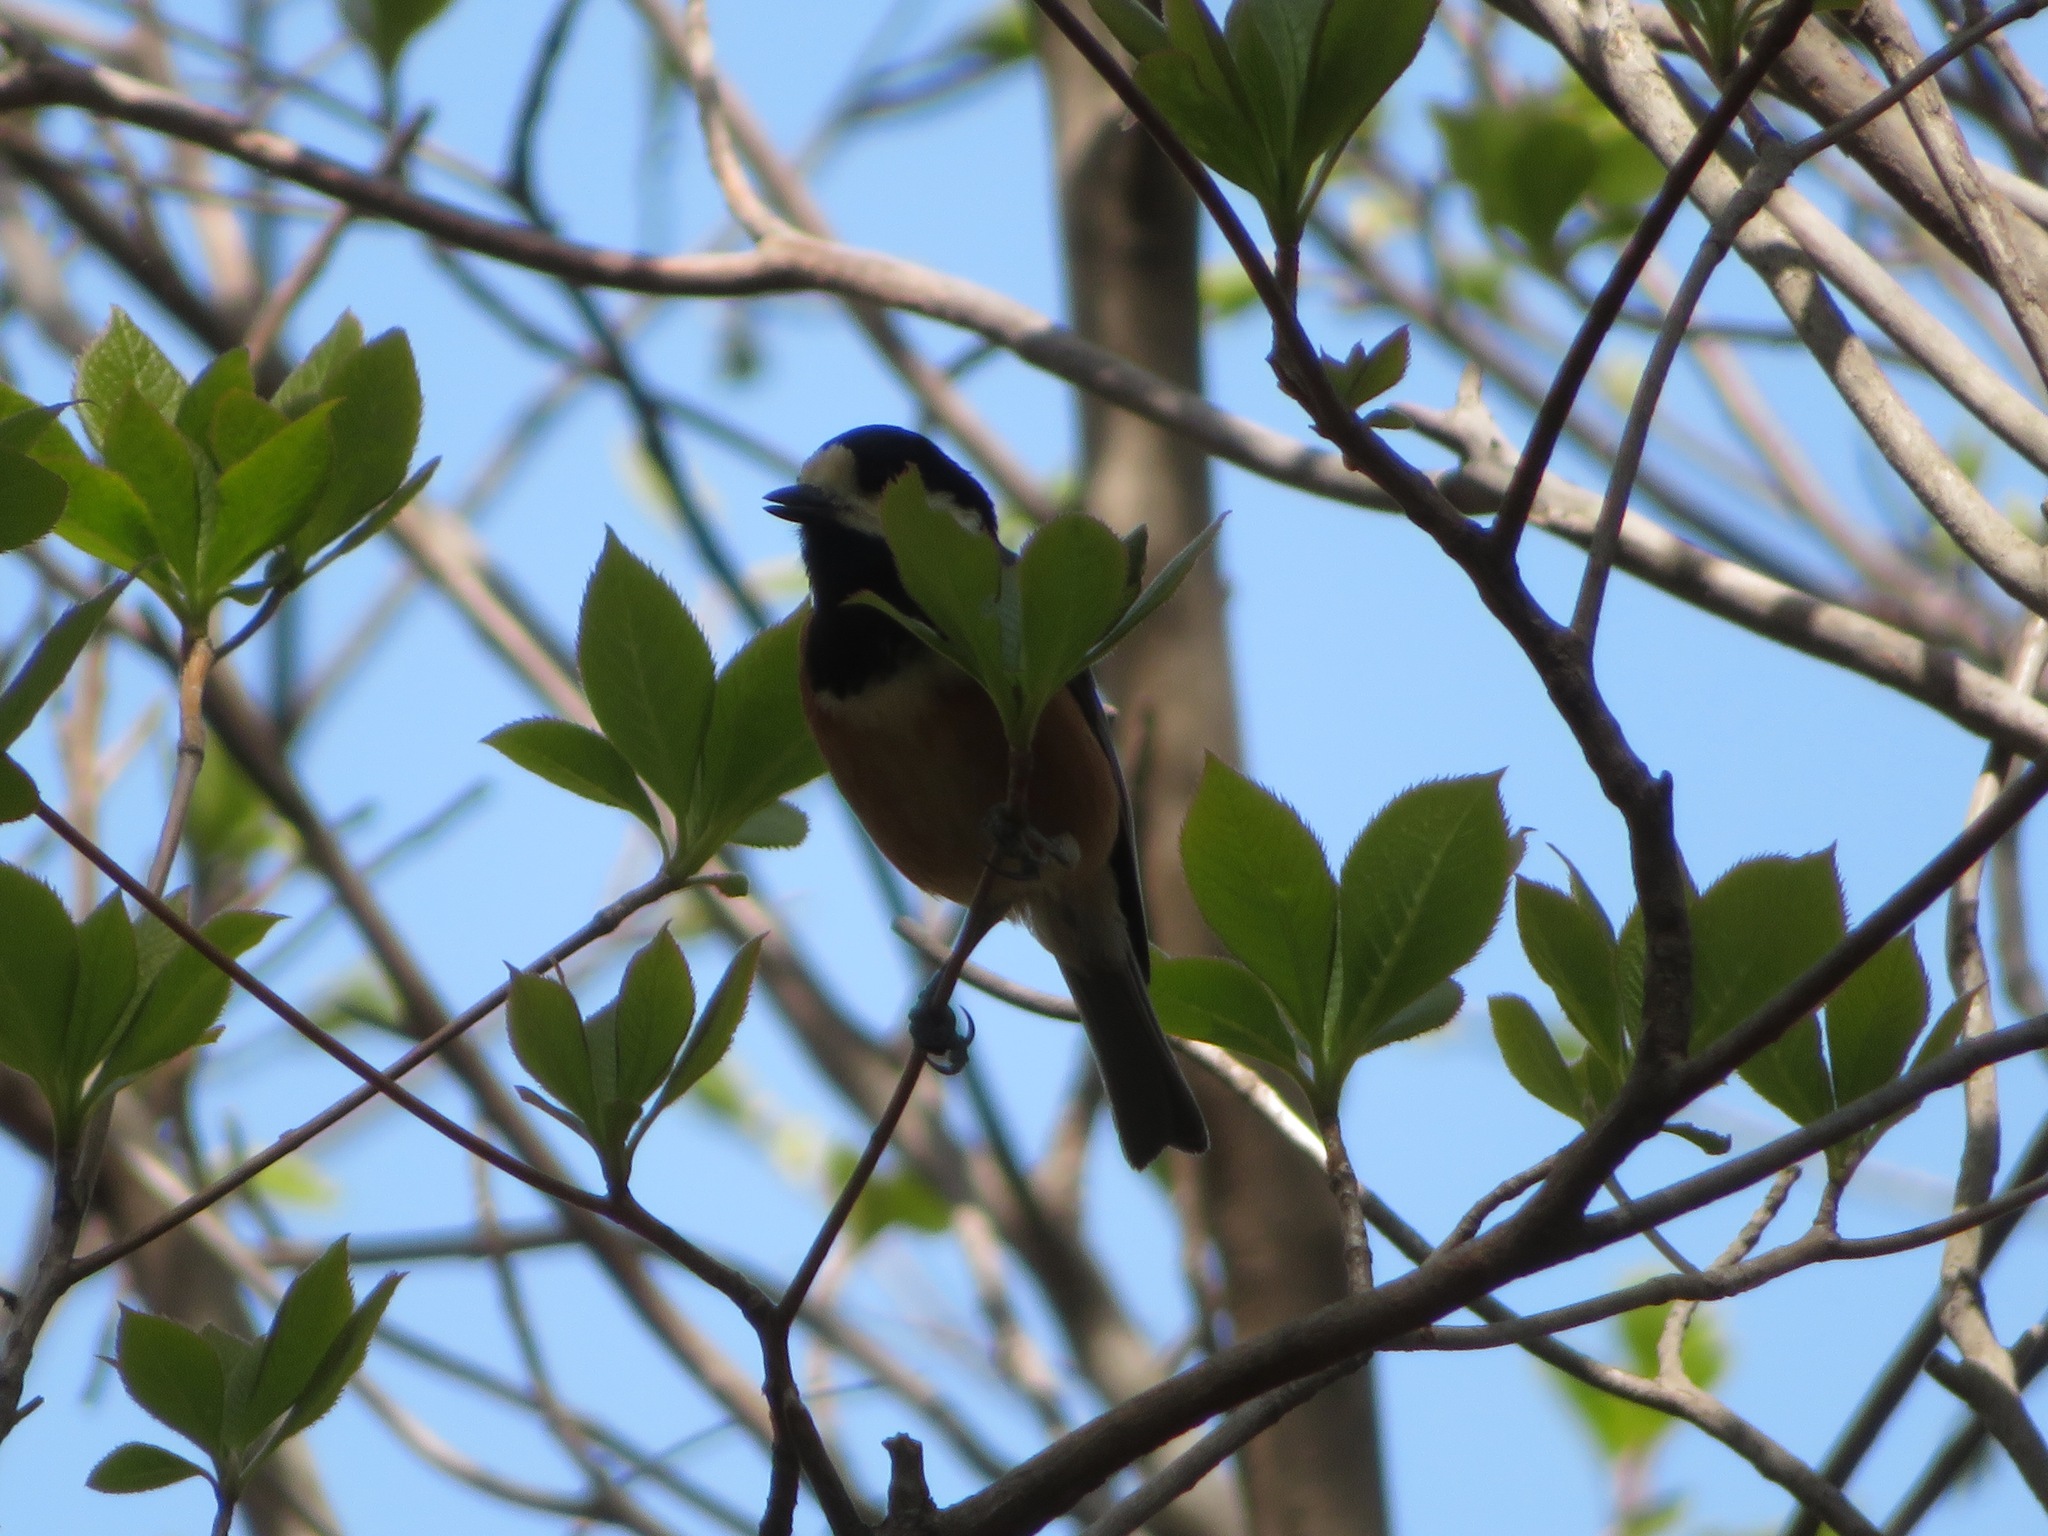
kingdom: Animalia
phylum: Chordata
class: Aves
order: Passeriformes
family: Paridae
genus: Poecile
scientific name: Poecile varius
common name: Varied tit
